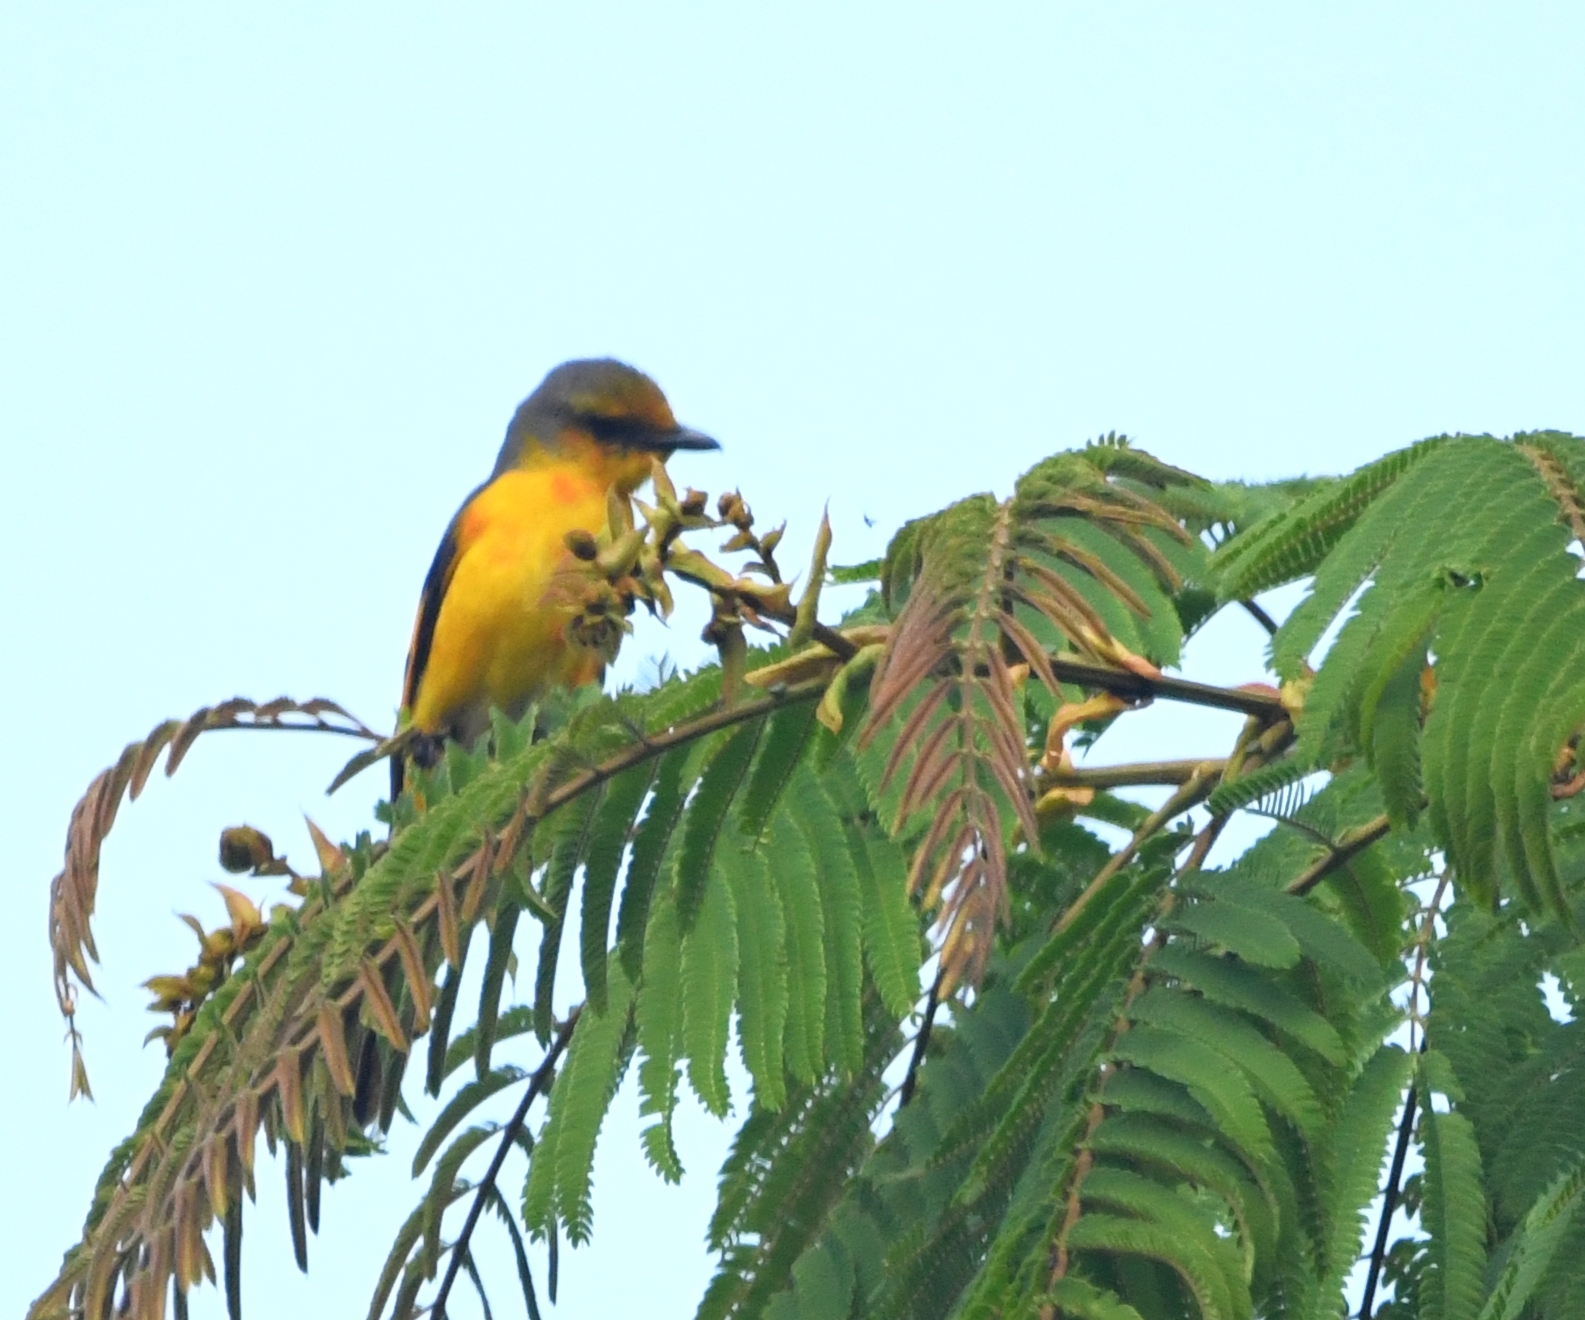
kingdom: Animalia
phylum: Chordata
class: Aves
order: Passeriformes
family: Campephagidae
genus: Pericrocotus
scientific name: Pericrocotus speciosus
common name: Scarlet minivet
